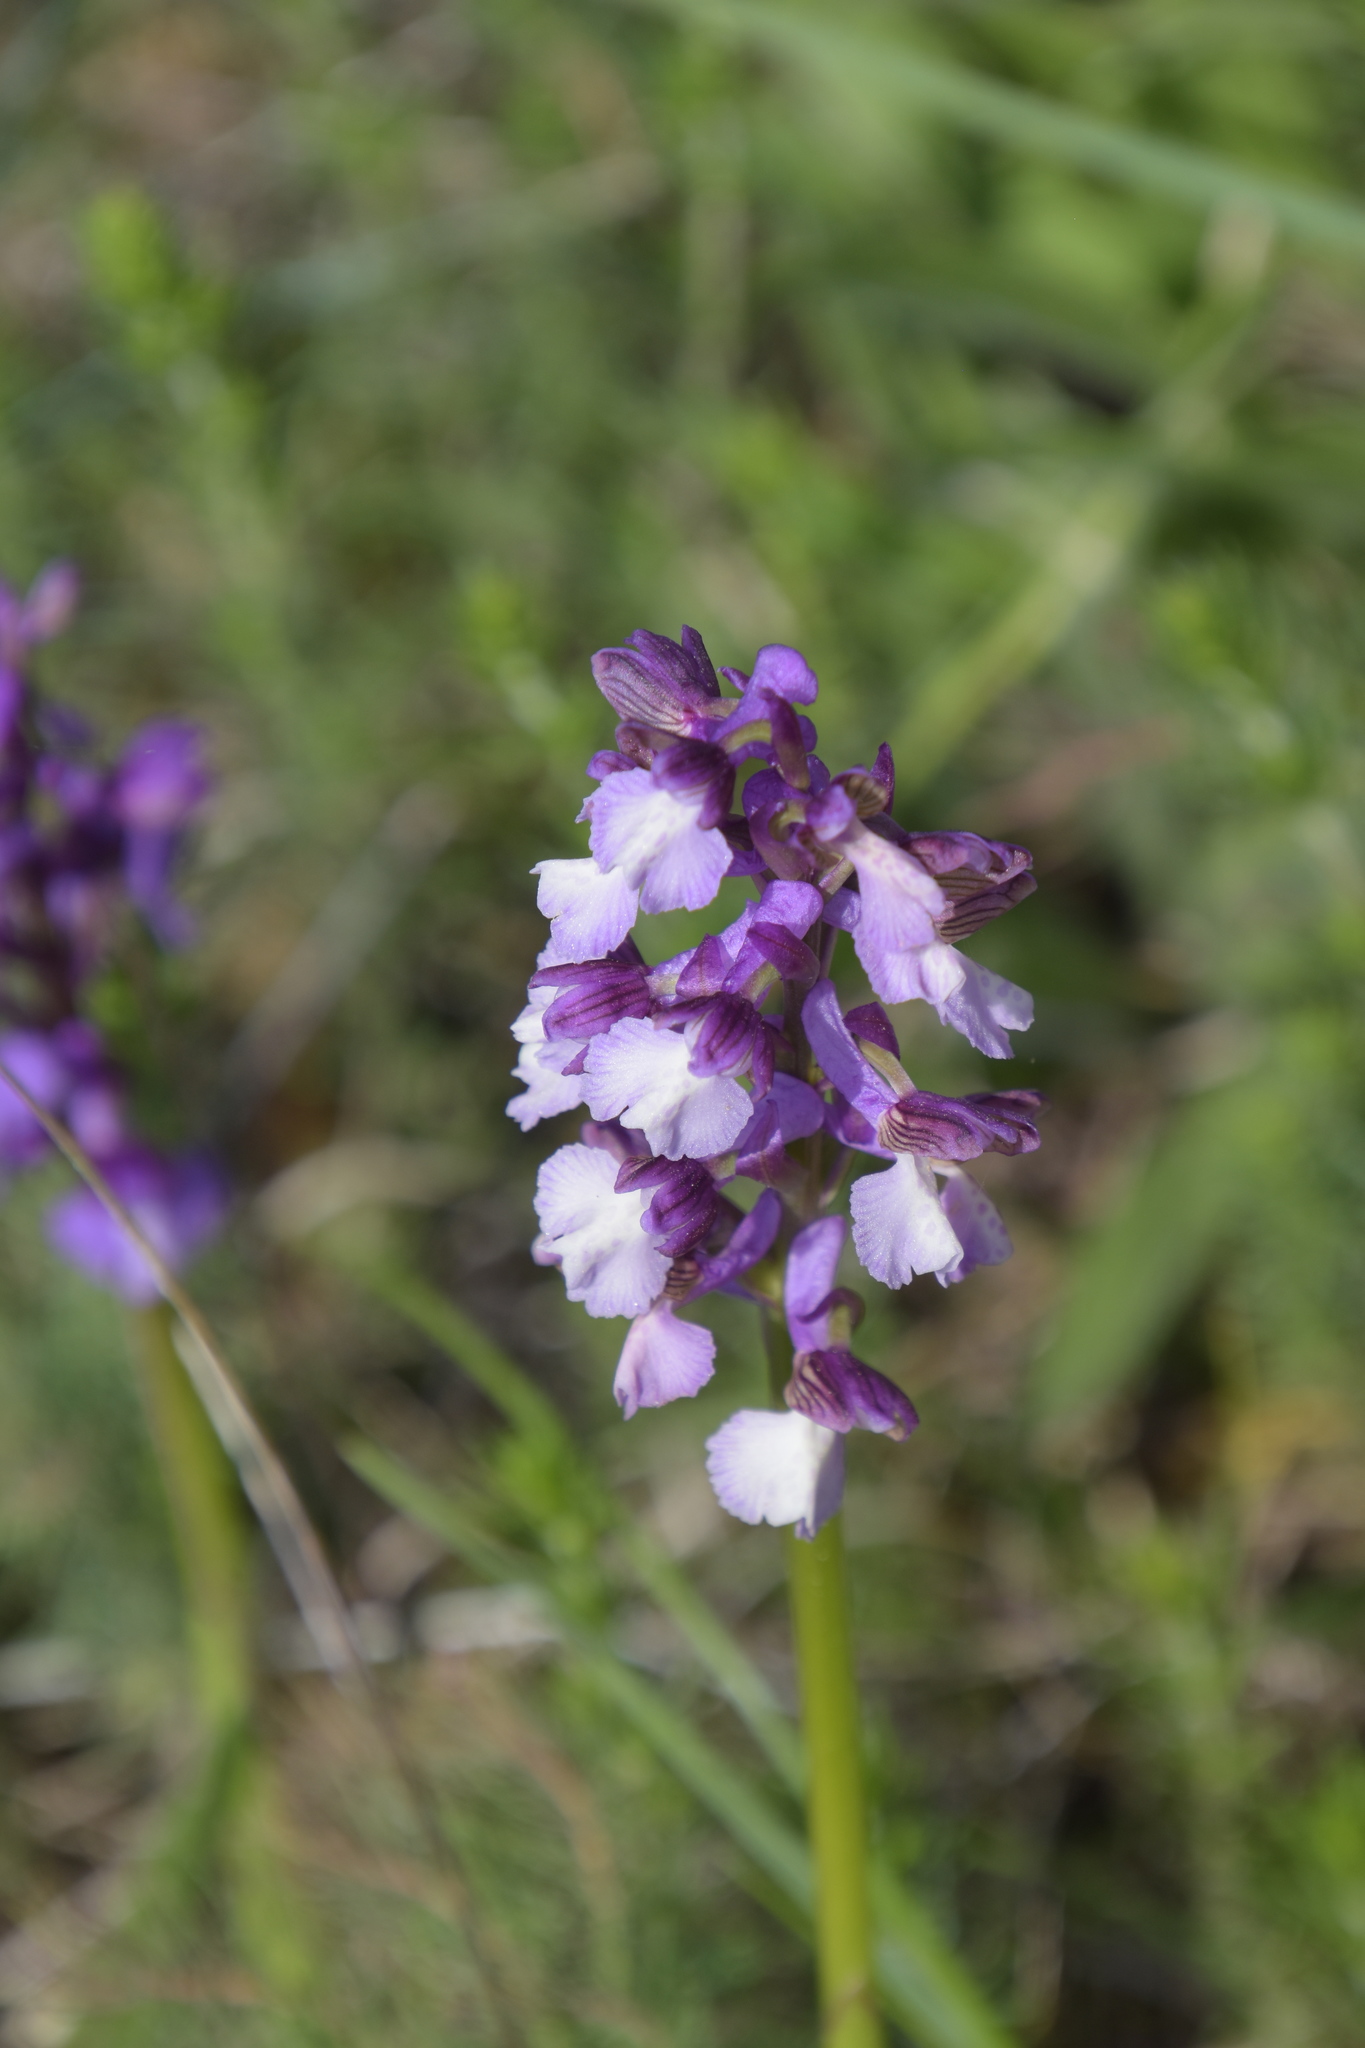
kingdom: Plantae
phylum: Tracheophyta
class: Liliopsida
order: Asparagales
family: Orchidaceae
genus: Anacamptis
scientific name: Anacamptis morio
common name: Green-winged orchid
